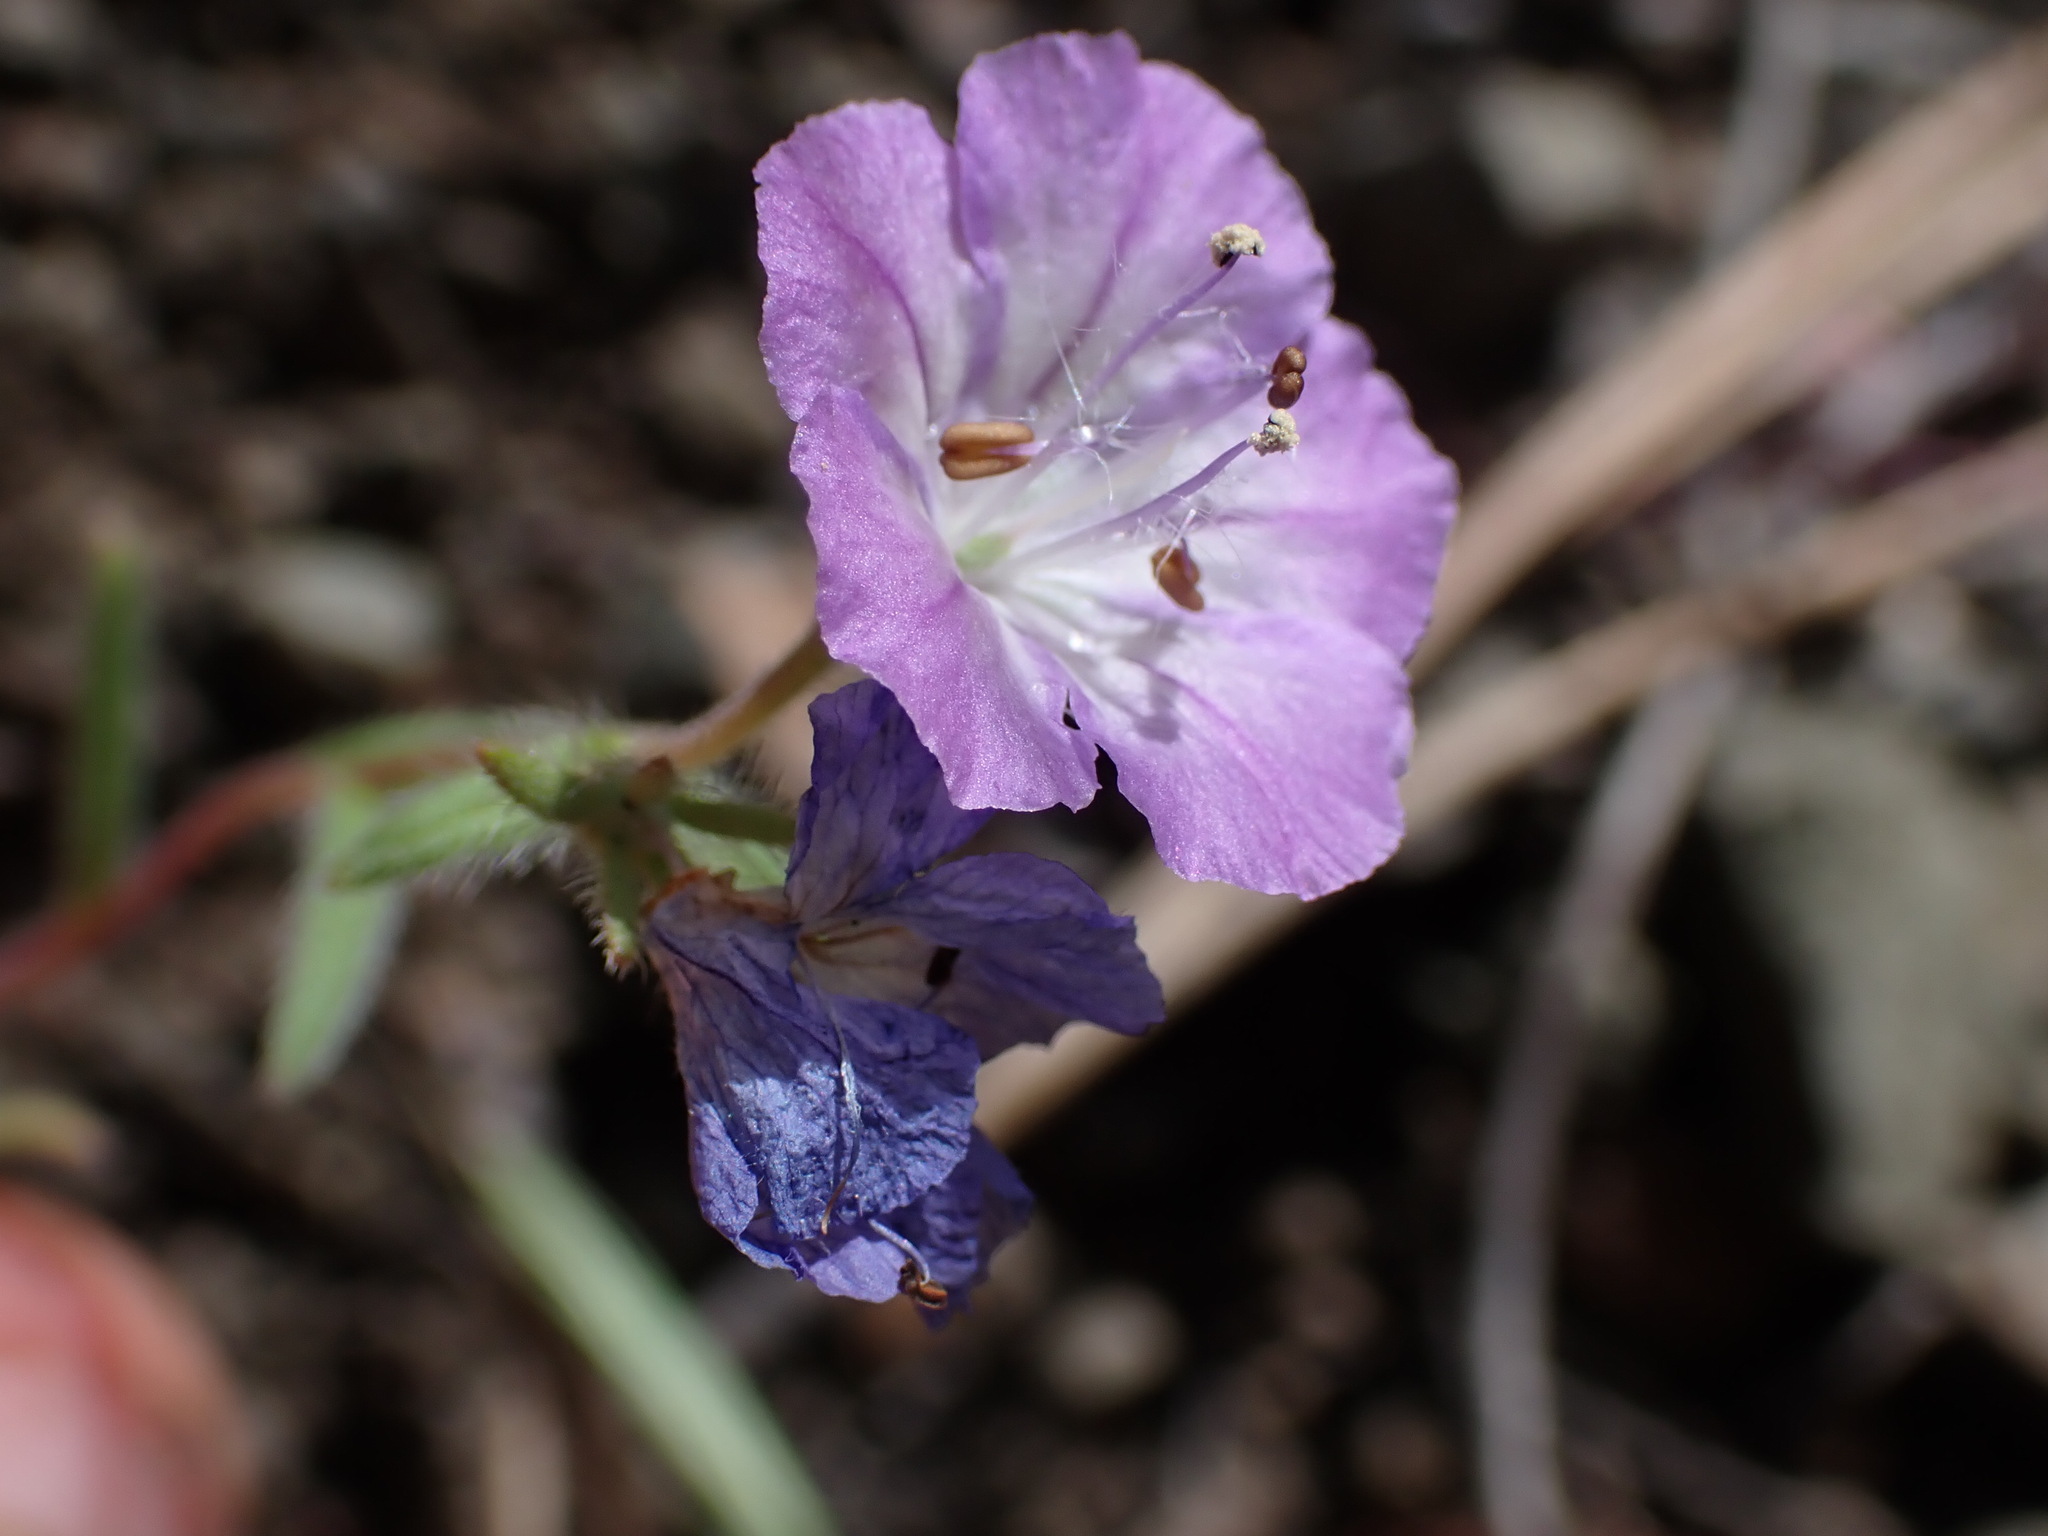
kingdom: Plantae
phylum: Tracheophyta
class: Magnoliopsida
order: Boraginales
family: Hydrophyllaceae
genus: Phacelia
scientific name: Phacelia linearis
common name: Linear-leaved phacelia
